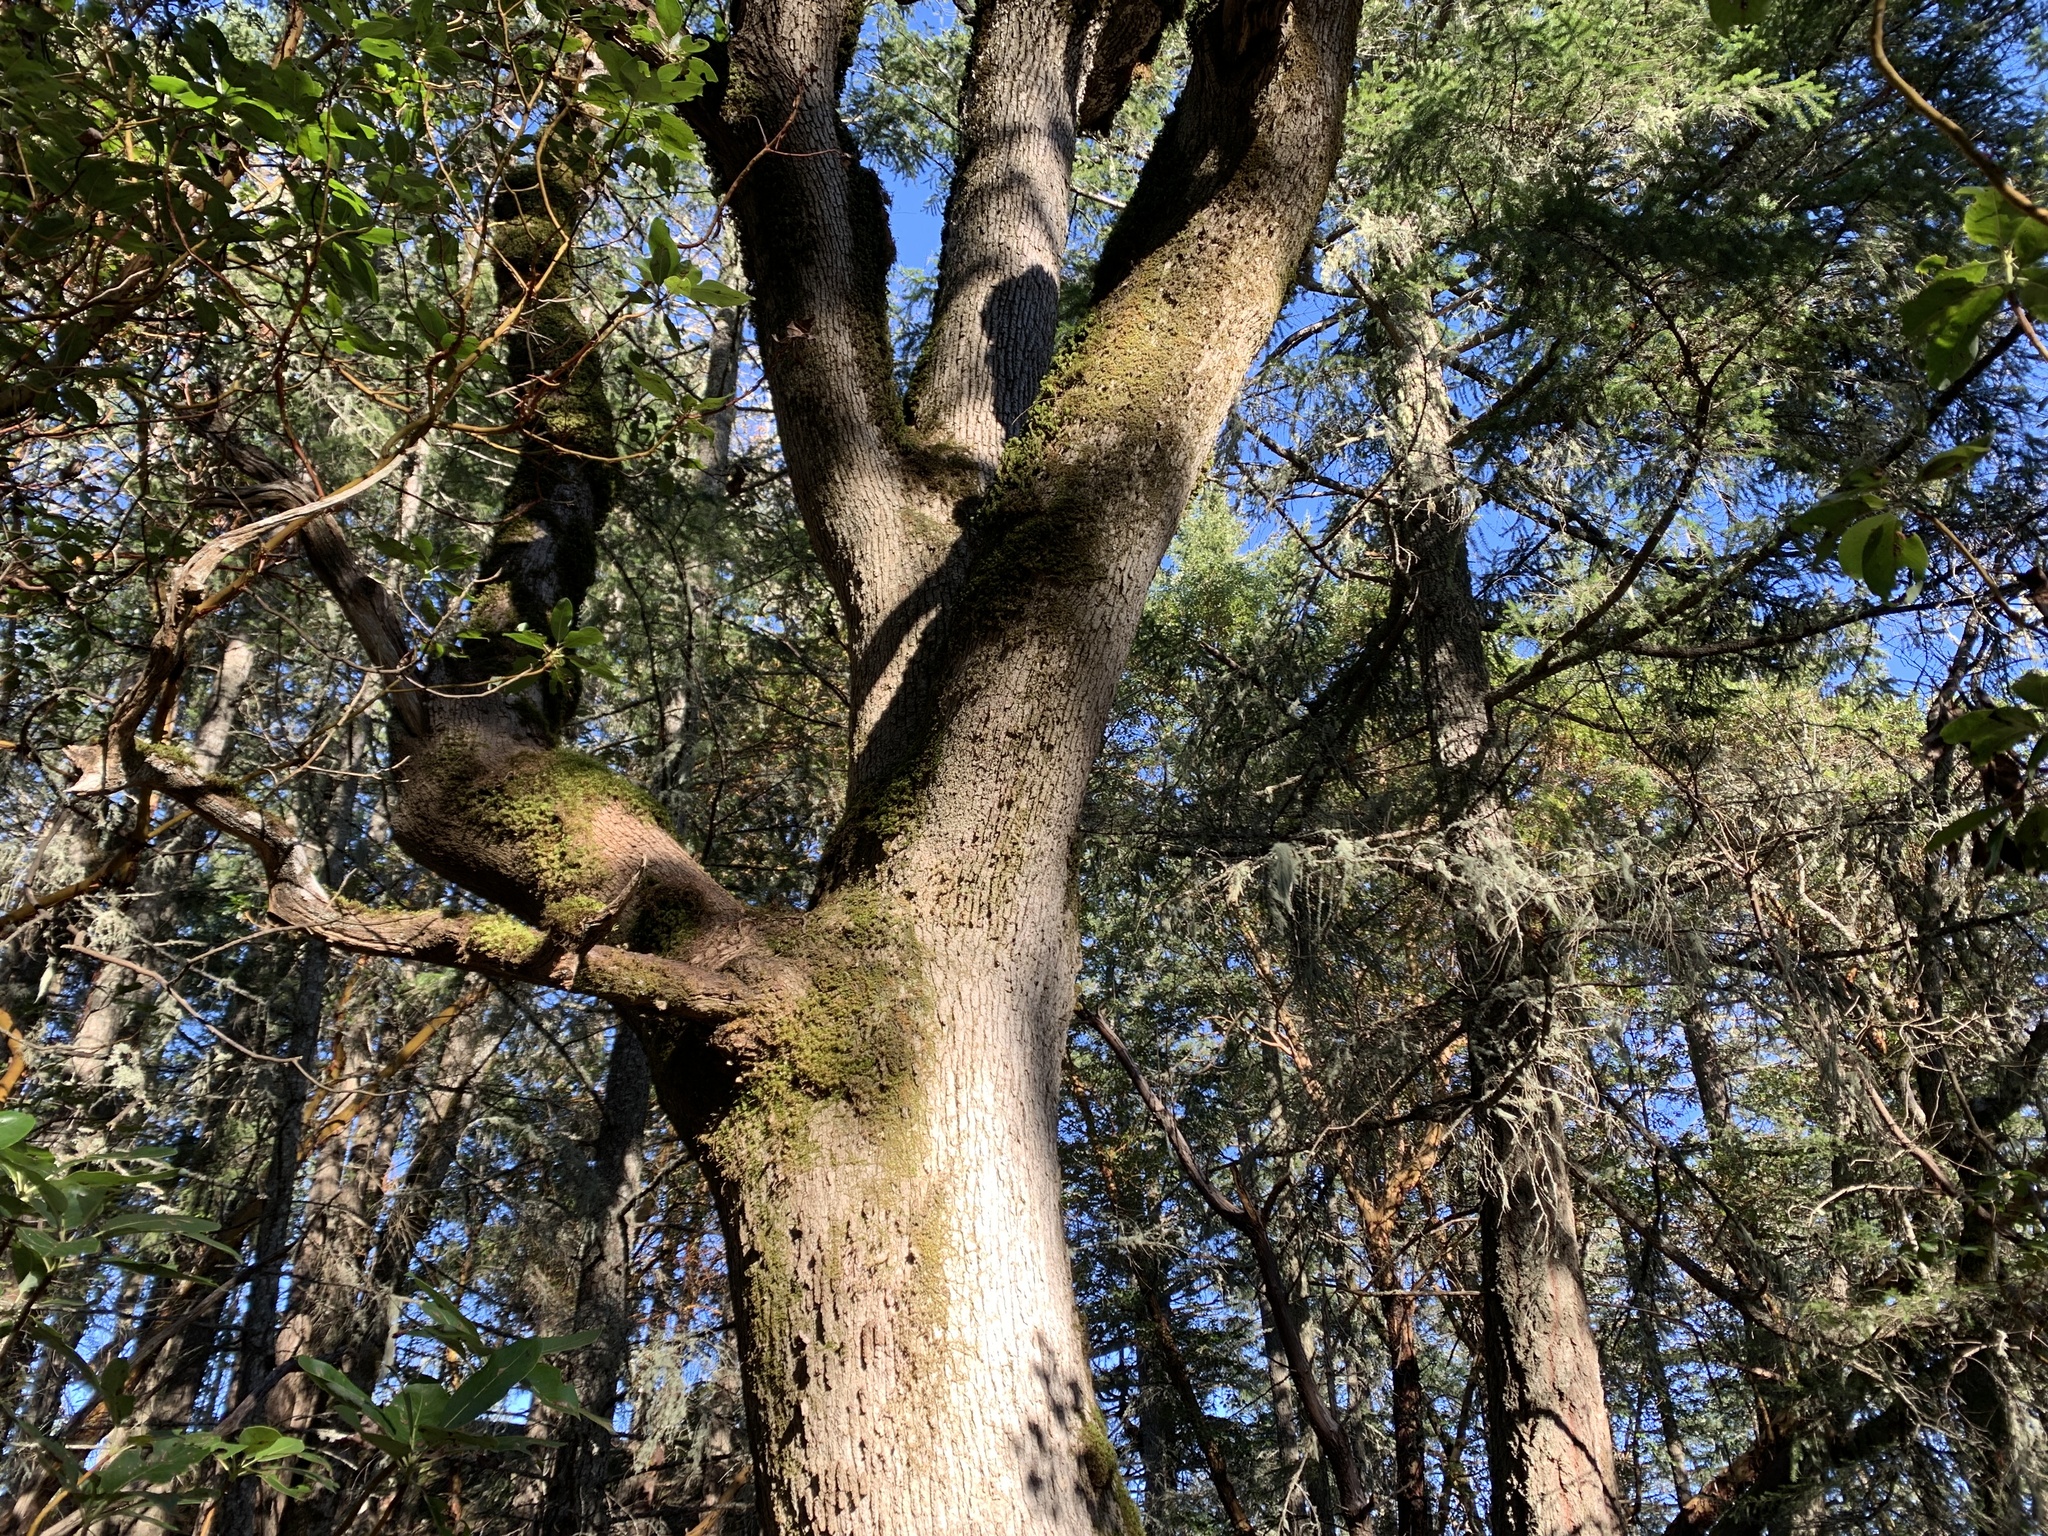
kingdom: Plantae
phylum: Tracheophyta
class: Magnoliopsida
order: Fagales
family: Fagaceae
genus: Quercus
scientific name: Quercus garryana
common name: Garry oak
